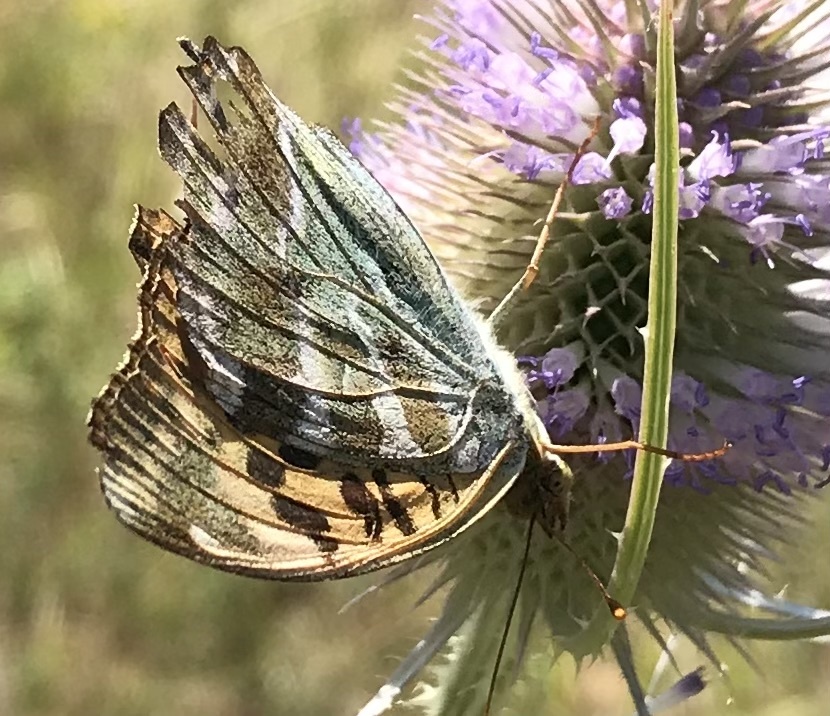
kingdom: Animalia
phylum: Arthropoda
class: Insecta
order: Lepidoptera
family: Nymphalidae
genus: Argynnis
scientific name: Argynnis paphia
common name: Silver-washed fritillary
